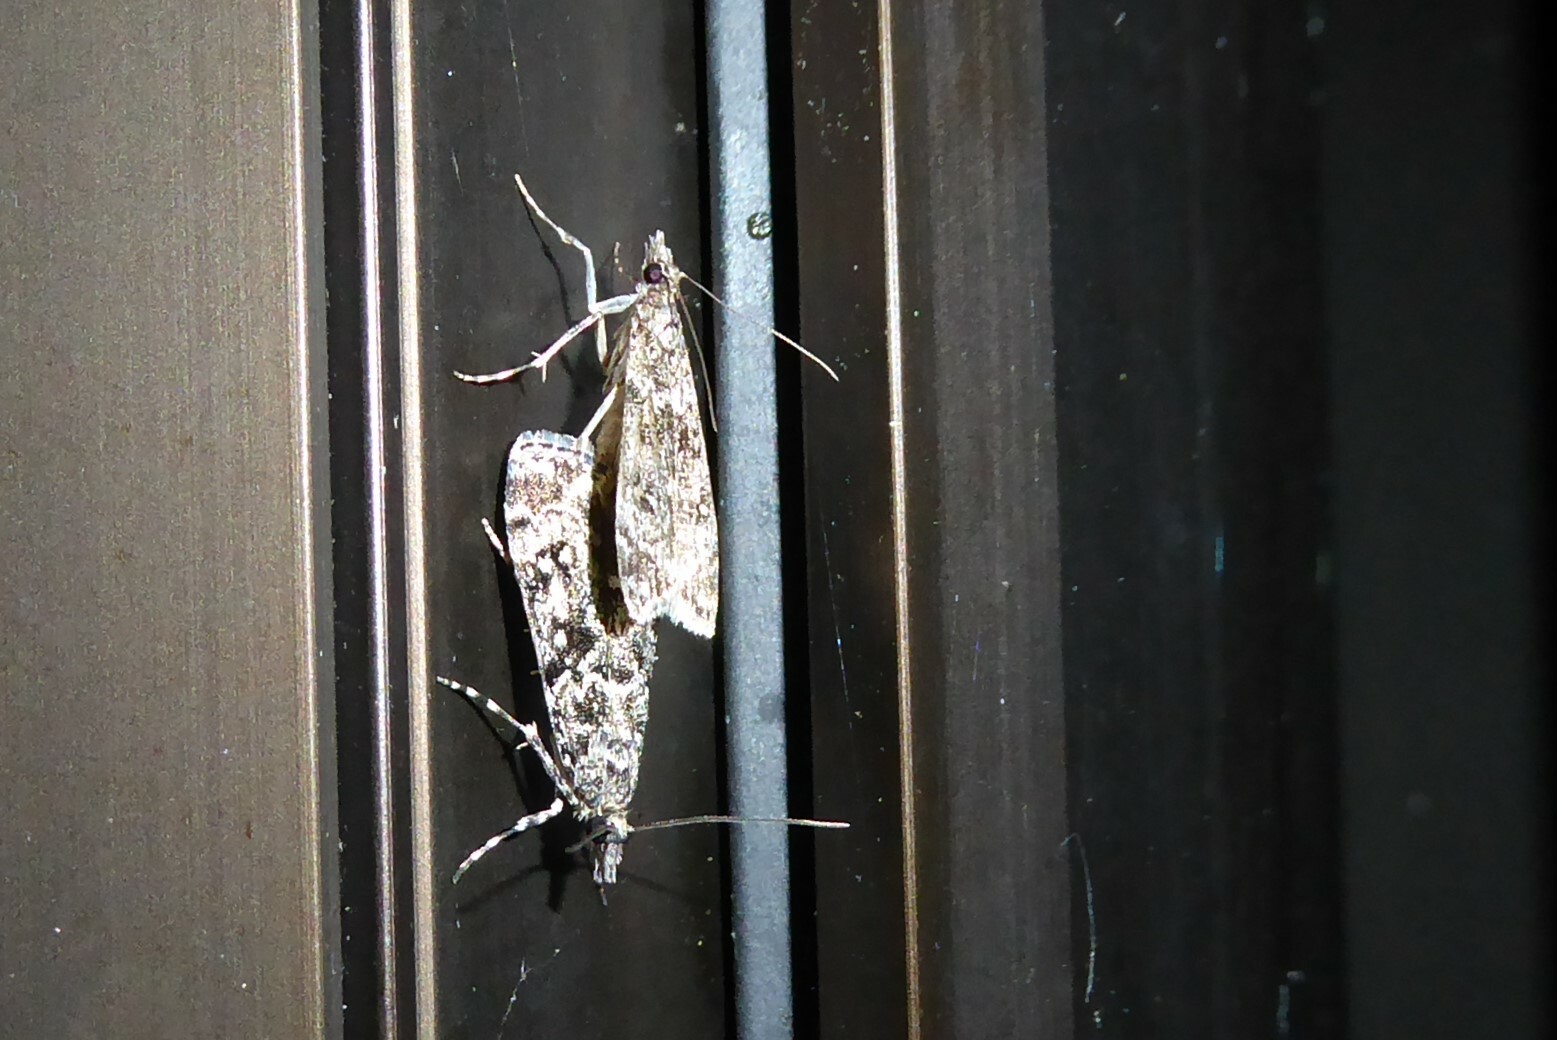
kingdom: Animalia
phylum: Arthropoda
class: Insecta
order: Lepidoptera
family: Crambidae
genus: Eudonia
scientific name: Eudonia philerga
